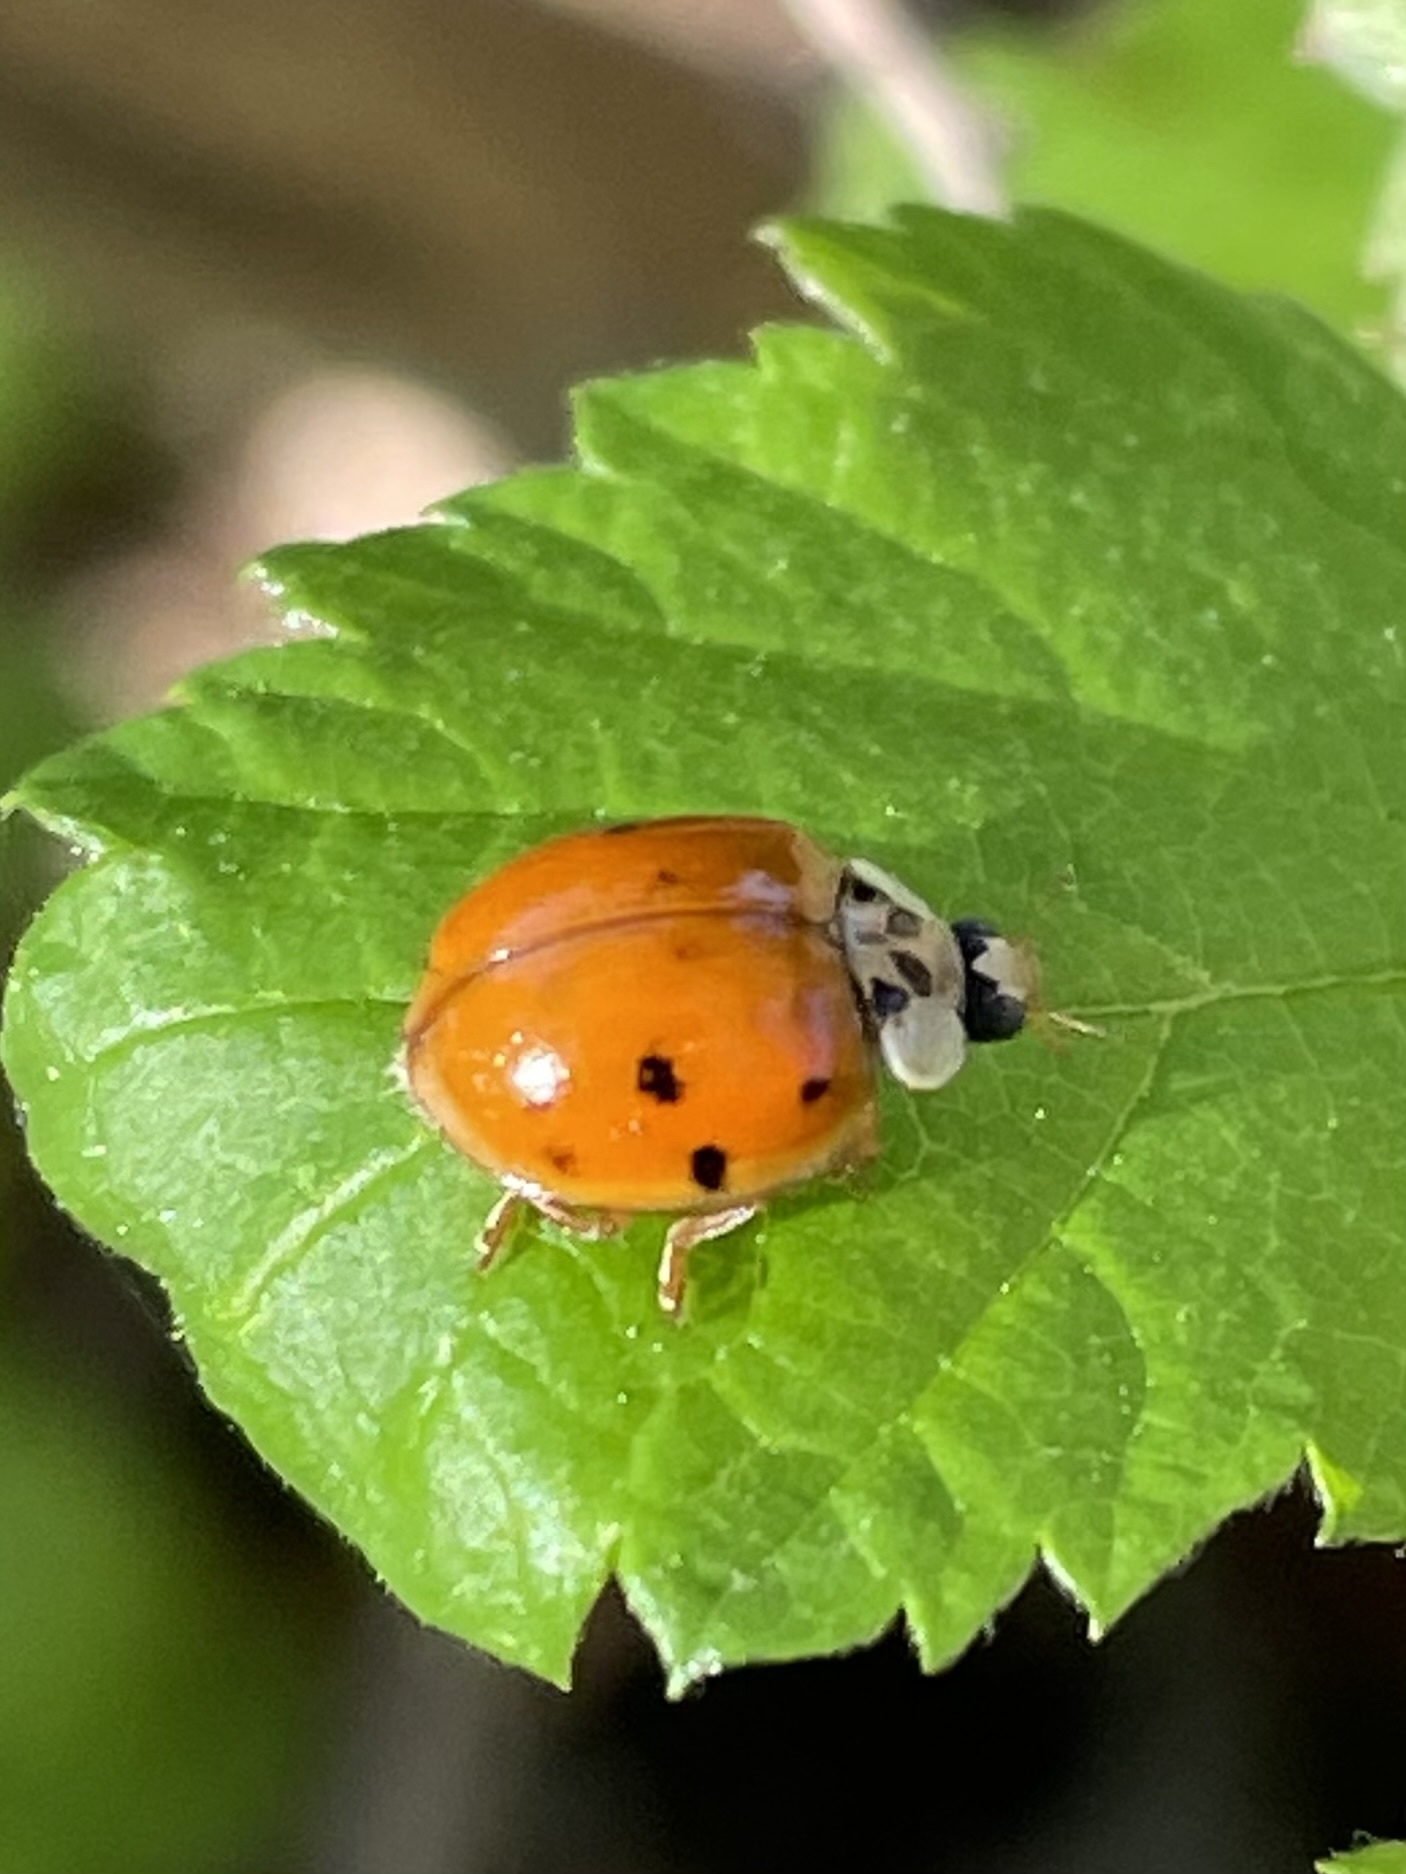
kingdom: Animalia
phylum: Arthropoda
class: Insecta
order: Coleoptera
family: Coccinellidae
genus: Harmonia
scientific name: Harmonia axyridis
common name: Harlequin ladybird
